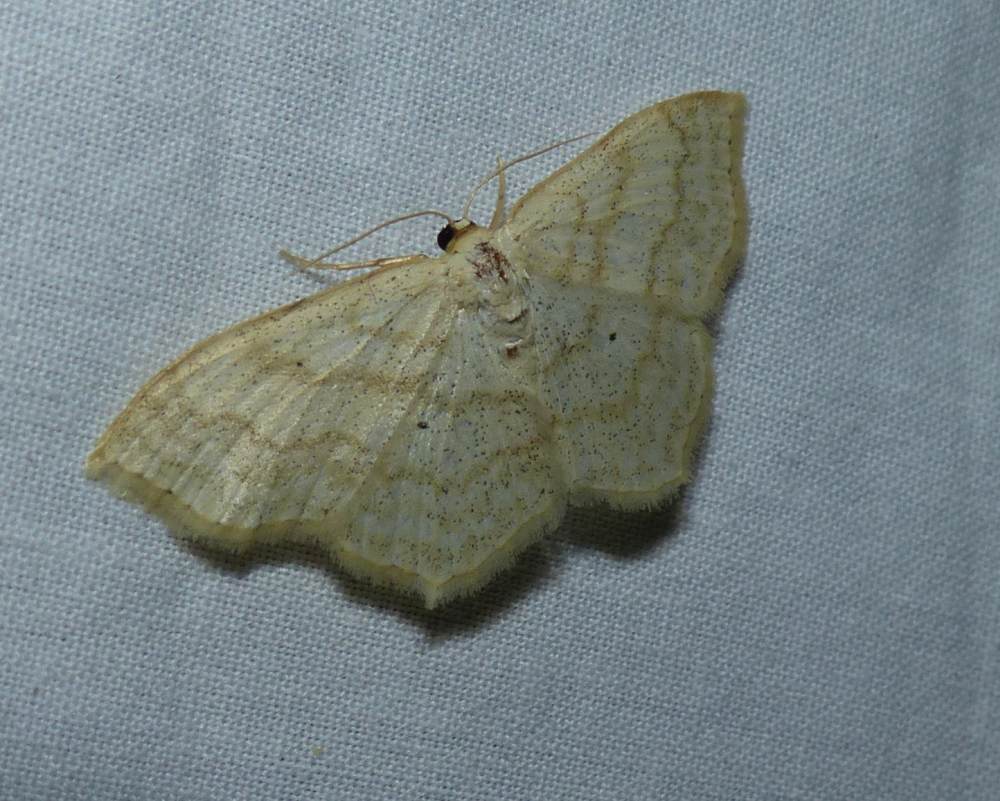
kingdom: Animalia
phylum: Arthropoda
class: Insecta
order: Lepidoptera
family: Geometridae
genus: Scopula
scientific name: Scopula limboundata
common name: Large lace border
